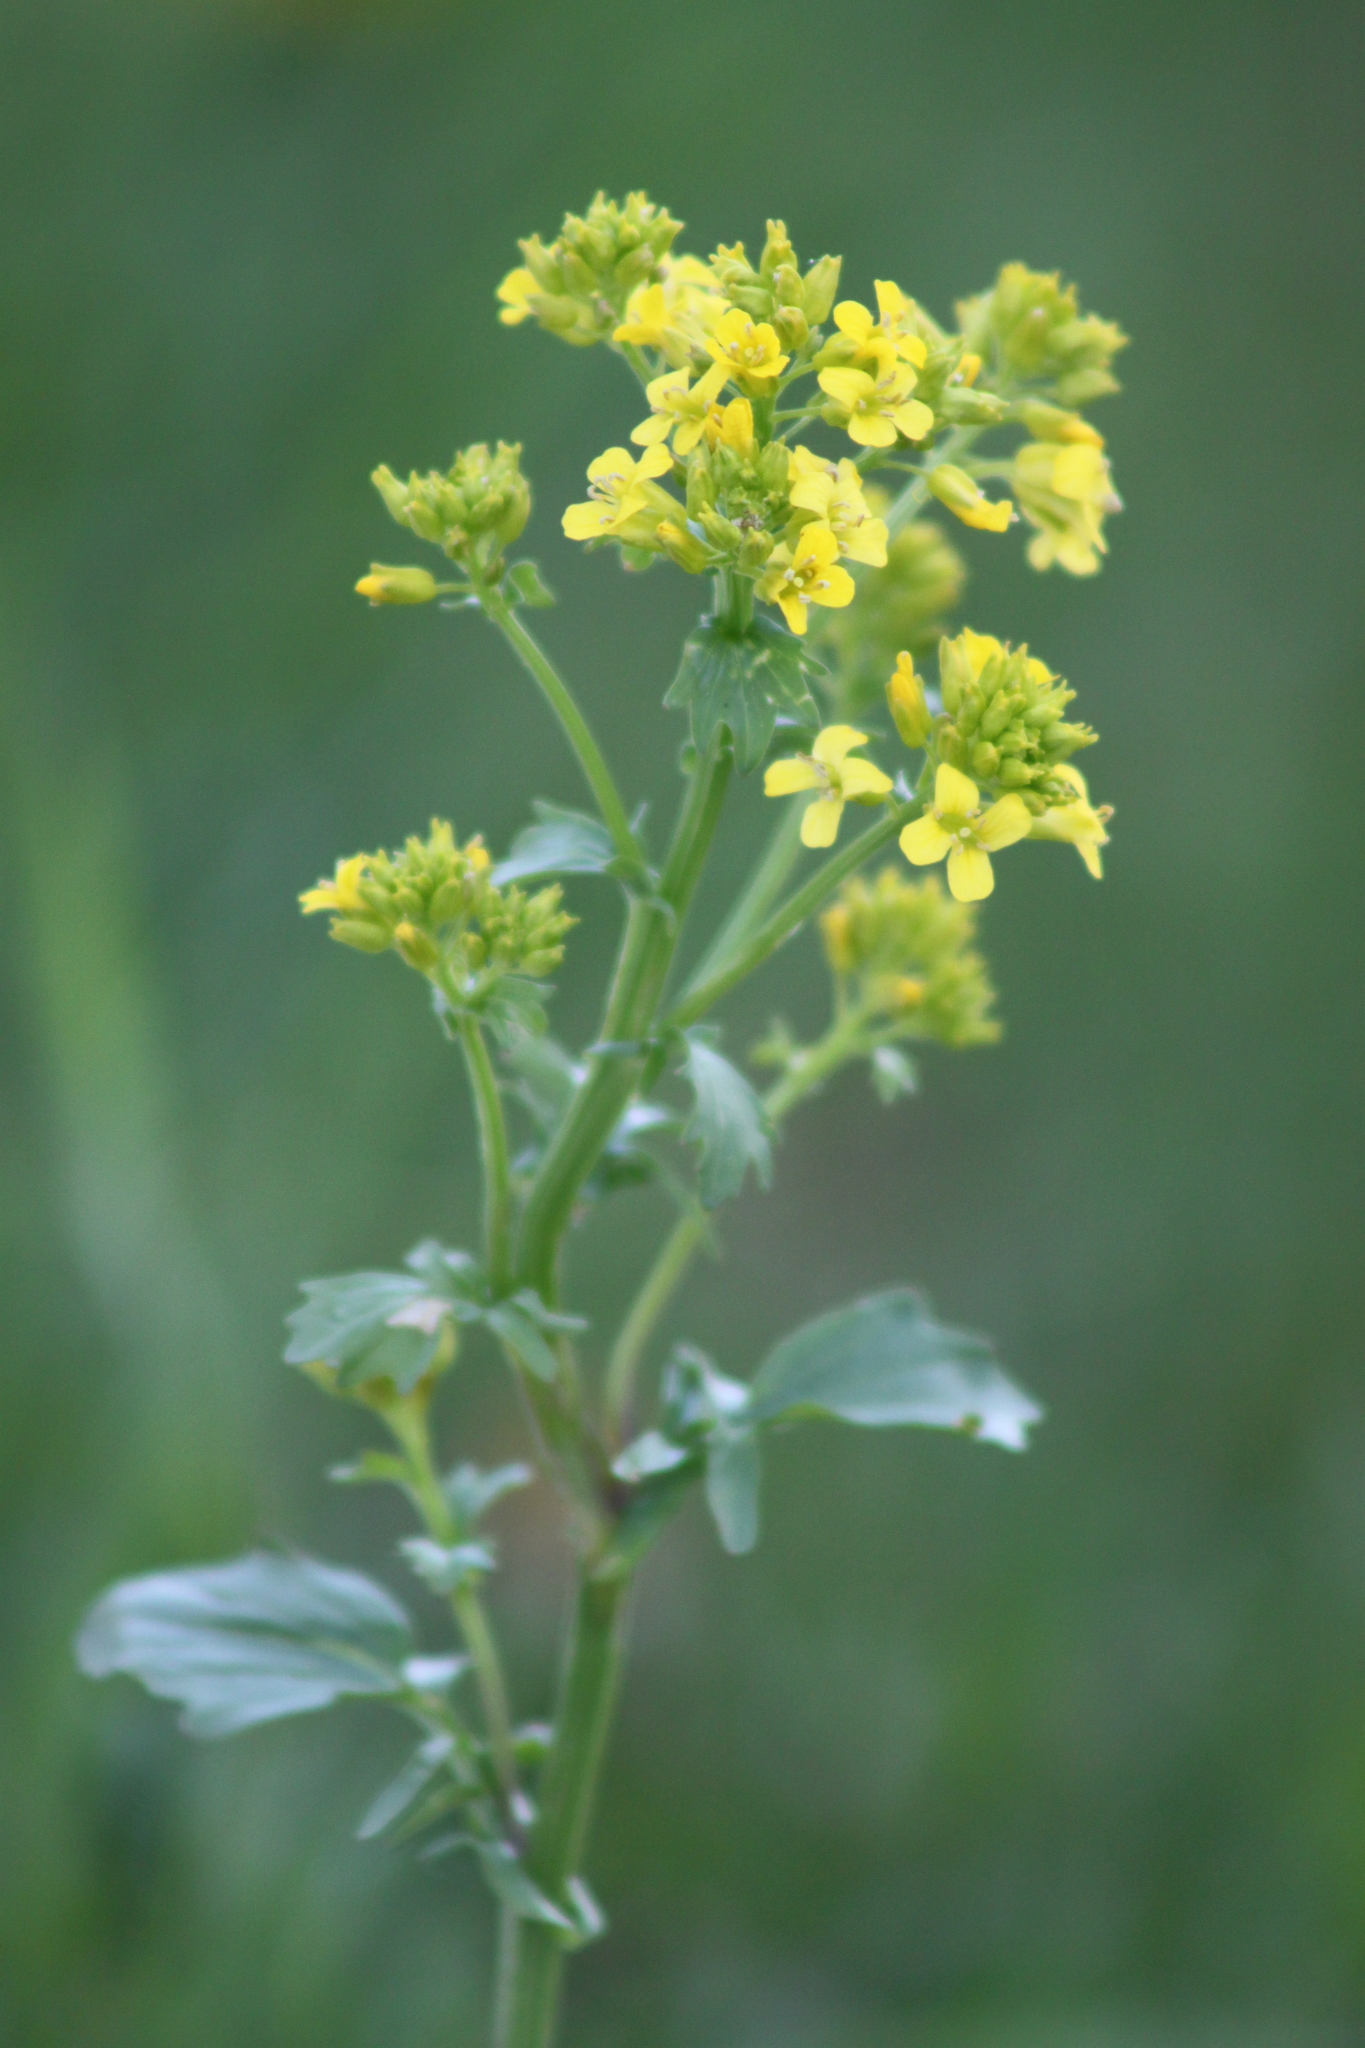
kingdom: Plantae
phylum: Tracheophyta
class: Magnoliopsida
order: Brassicales
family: Brassicaceae
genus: Barbarea
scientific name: Barbarea vulgaris
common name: Cressy-greens
